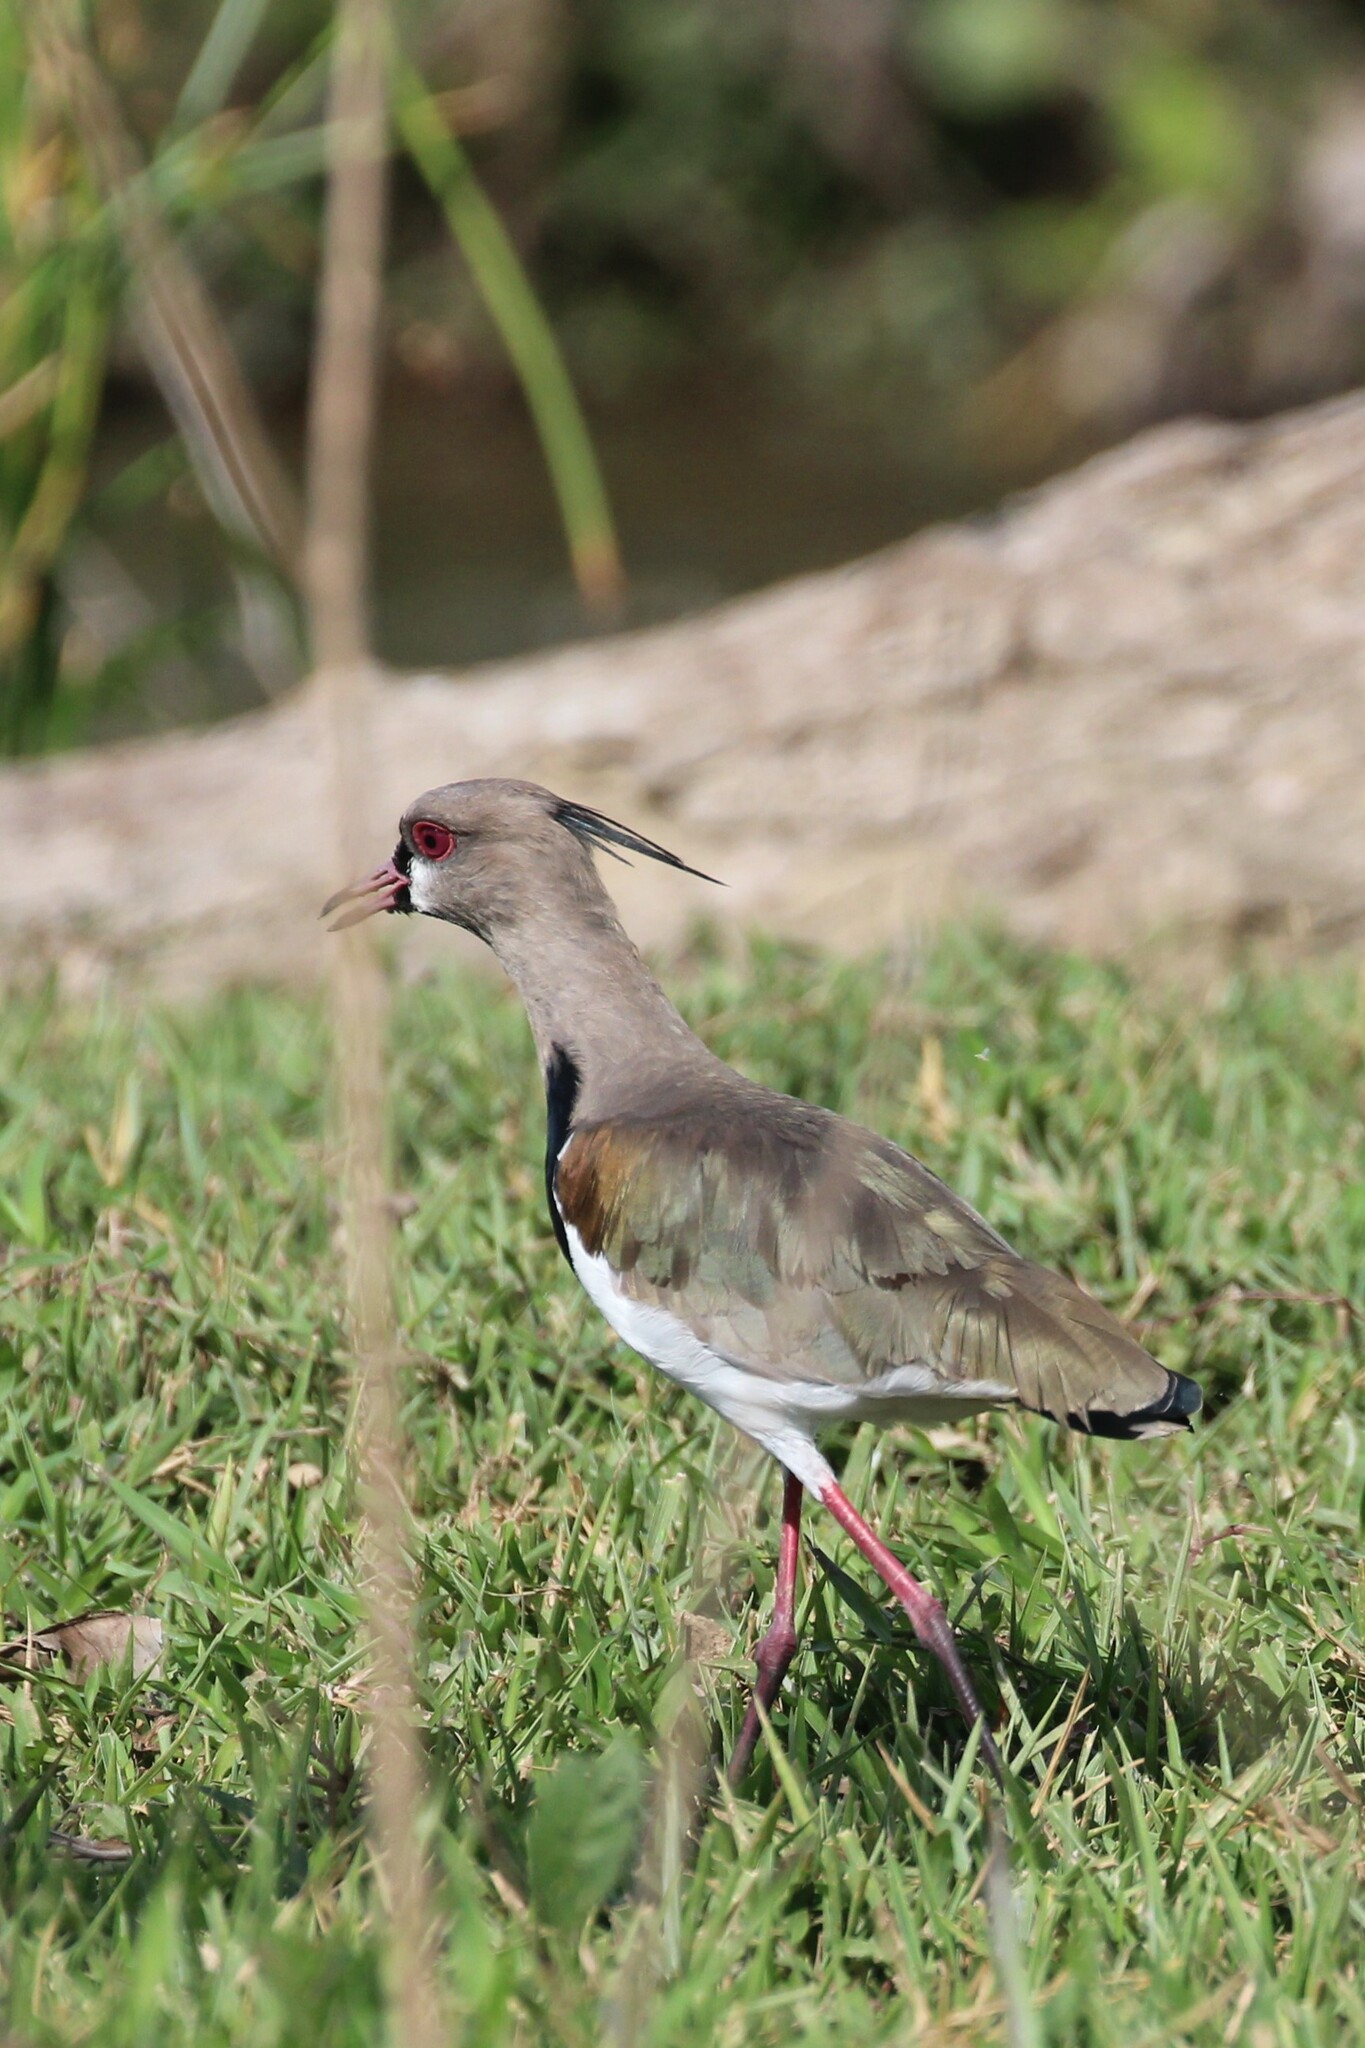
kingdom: Animalia
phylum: Chordata
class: Aves
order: Charadriiformes
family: Charadriidae
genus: Vanellus
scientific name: Vanellus chilensis
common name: Southern lapwing
